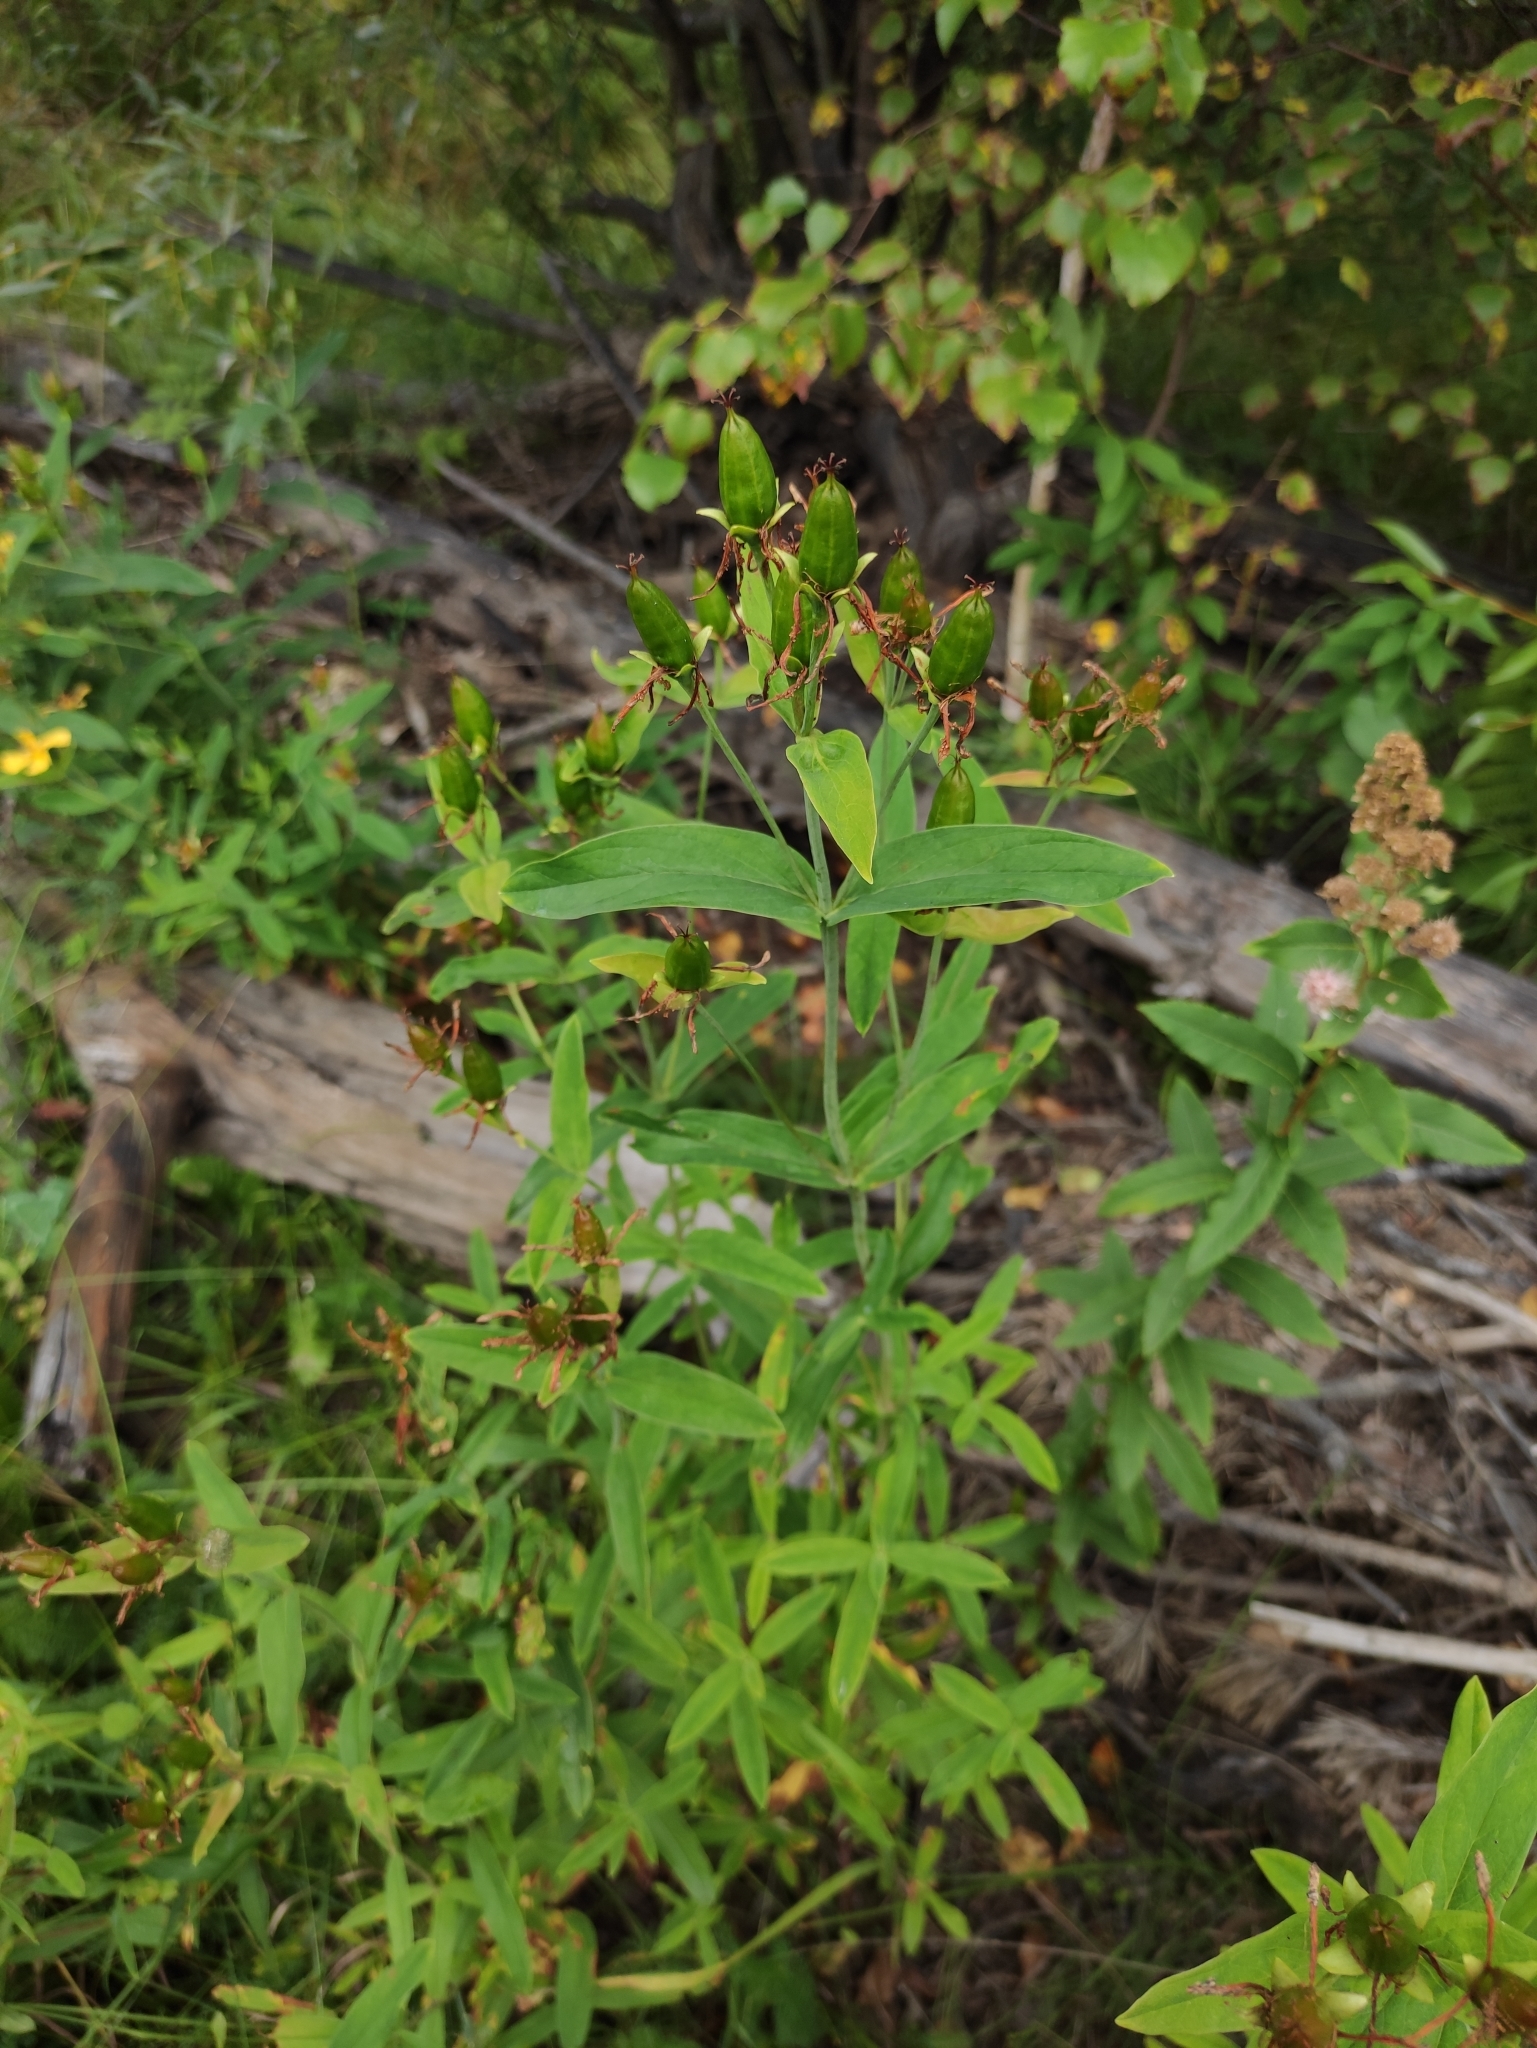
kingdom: Plantae
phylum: Tracheophyta
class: Magnoliopsida
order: Malpighiales
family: Hypericaceae
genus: Hypericum
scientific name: Hypericum ascyron
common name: Giant st. john's-wort
